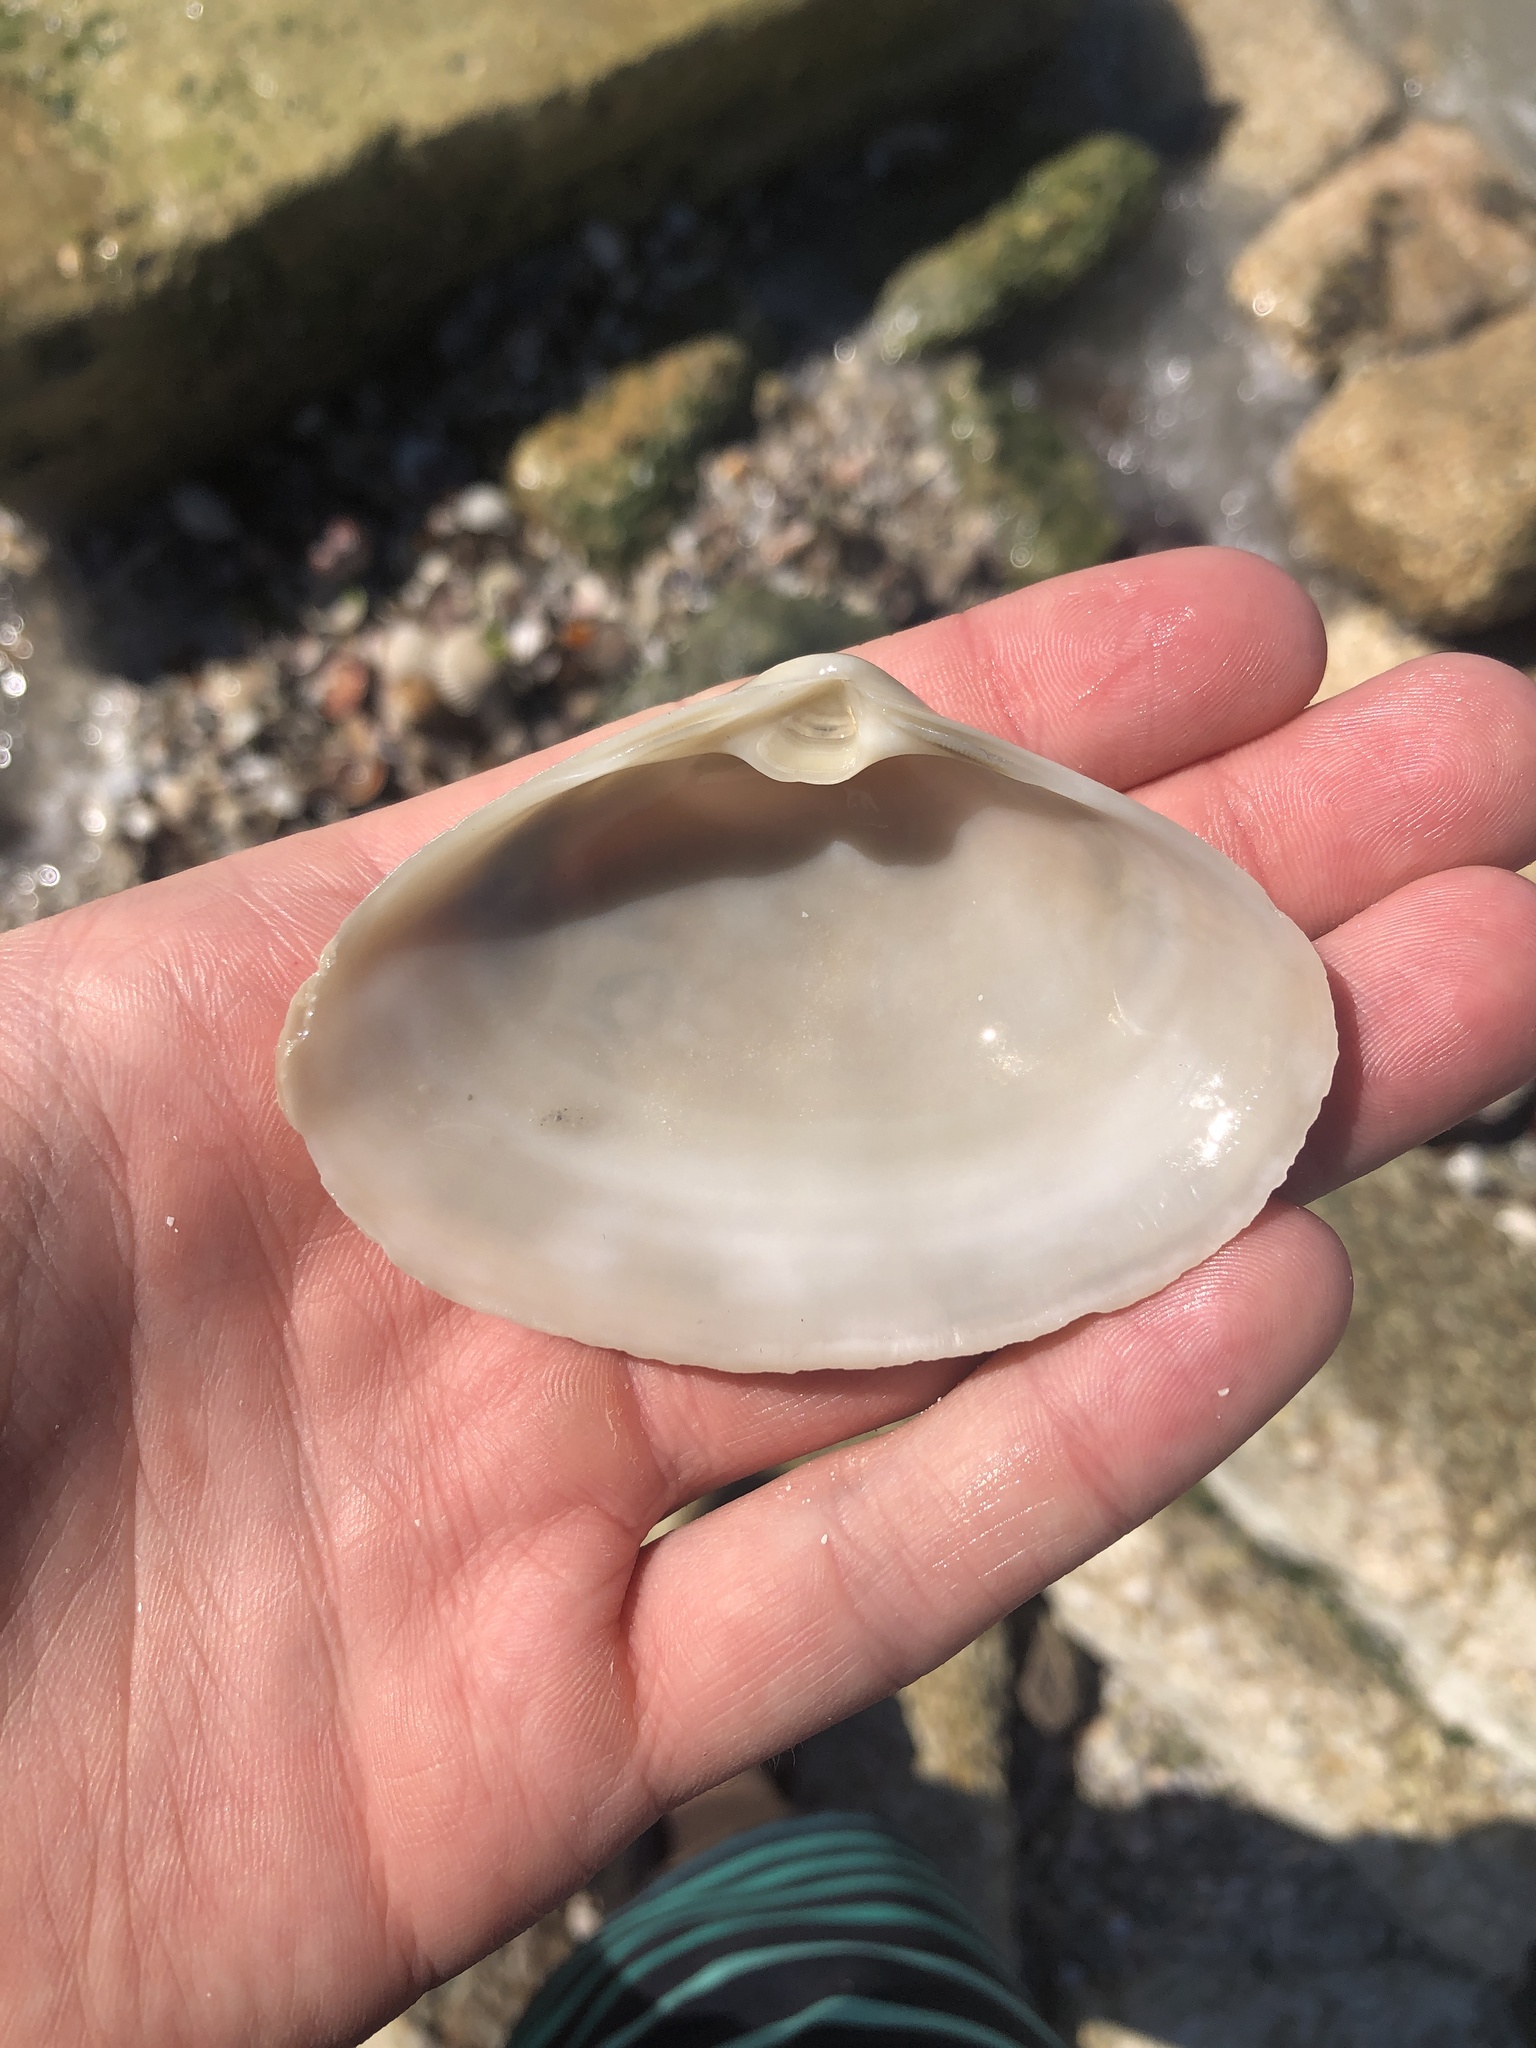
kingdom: Animalia
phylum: Mollusca
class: Bivalvia
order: Venerida
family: Mactridae
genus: Spisula
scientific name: Spisula raveneli
